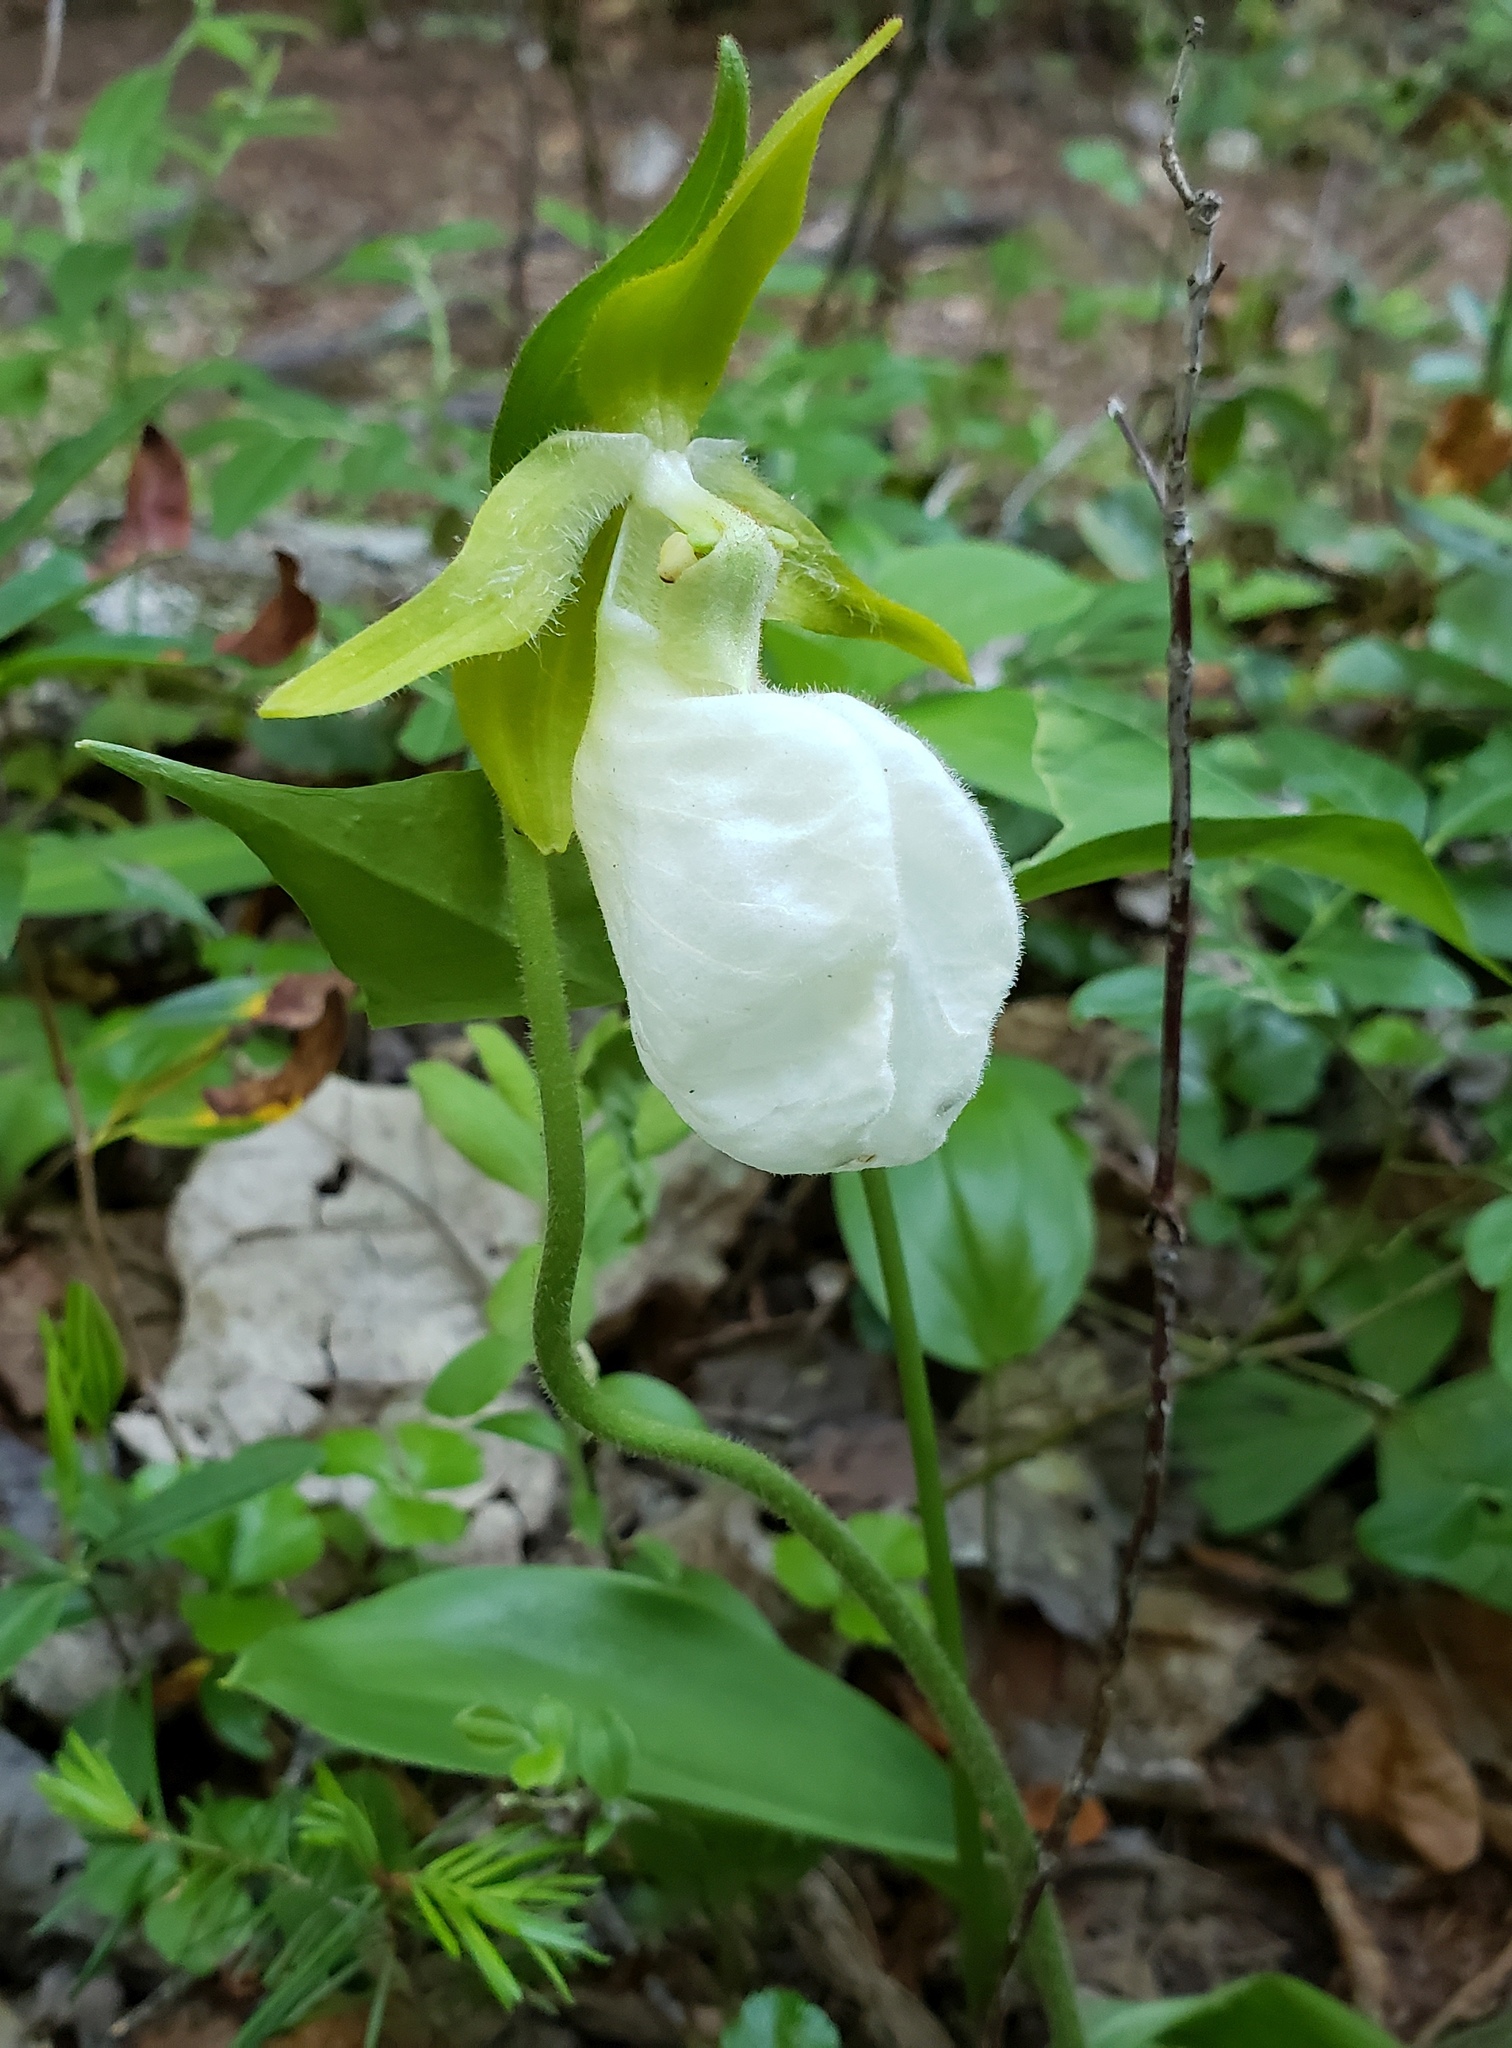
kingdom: Plantae
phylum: Tracheophyta
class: Liliopsida
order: Asparagales
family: Orchidaceae
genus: Cypripedium
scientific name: Cypripedium acaule
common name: Pink lady's-slipper
